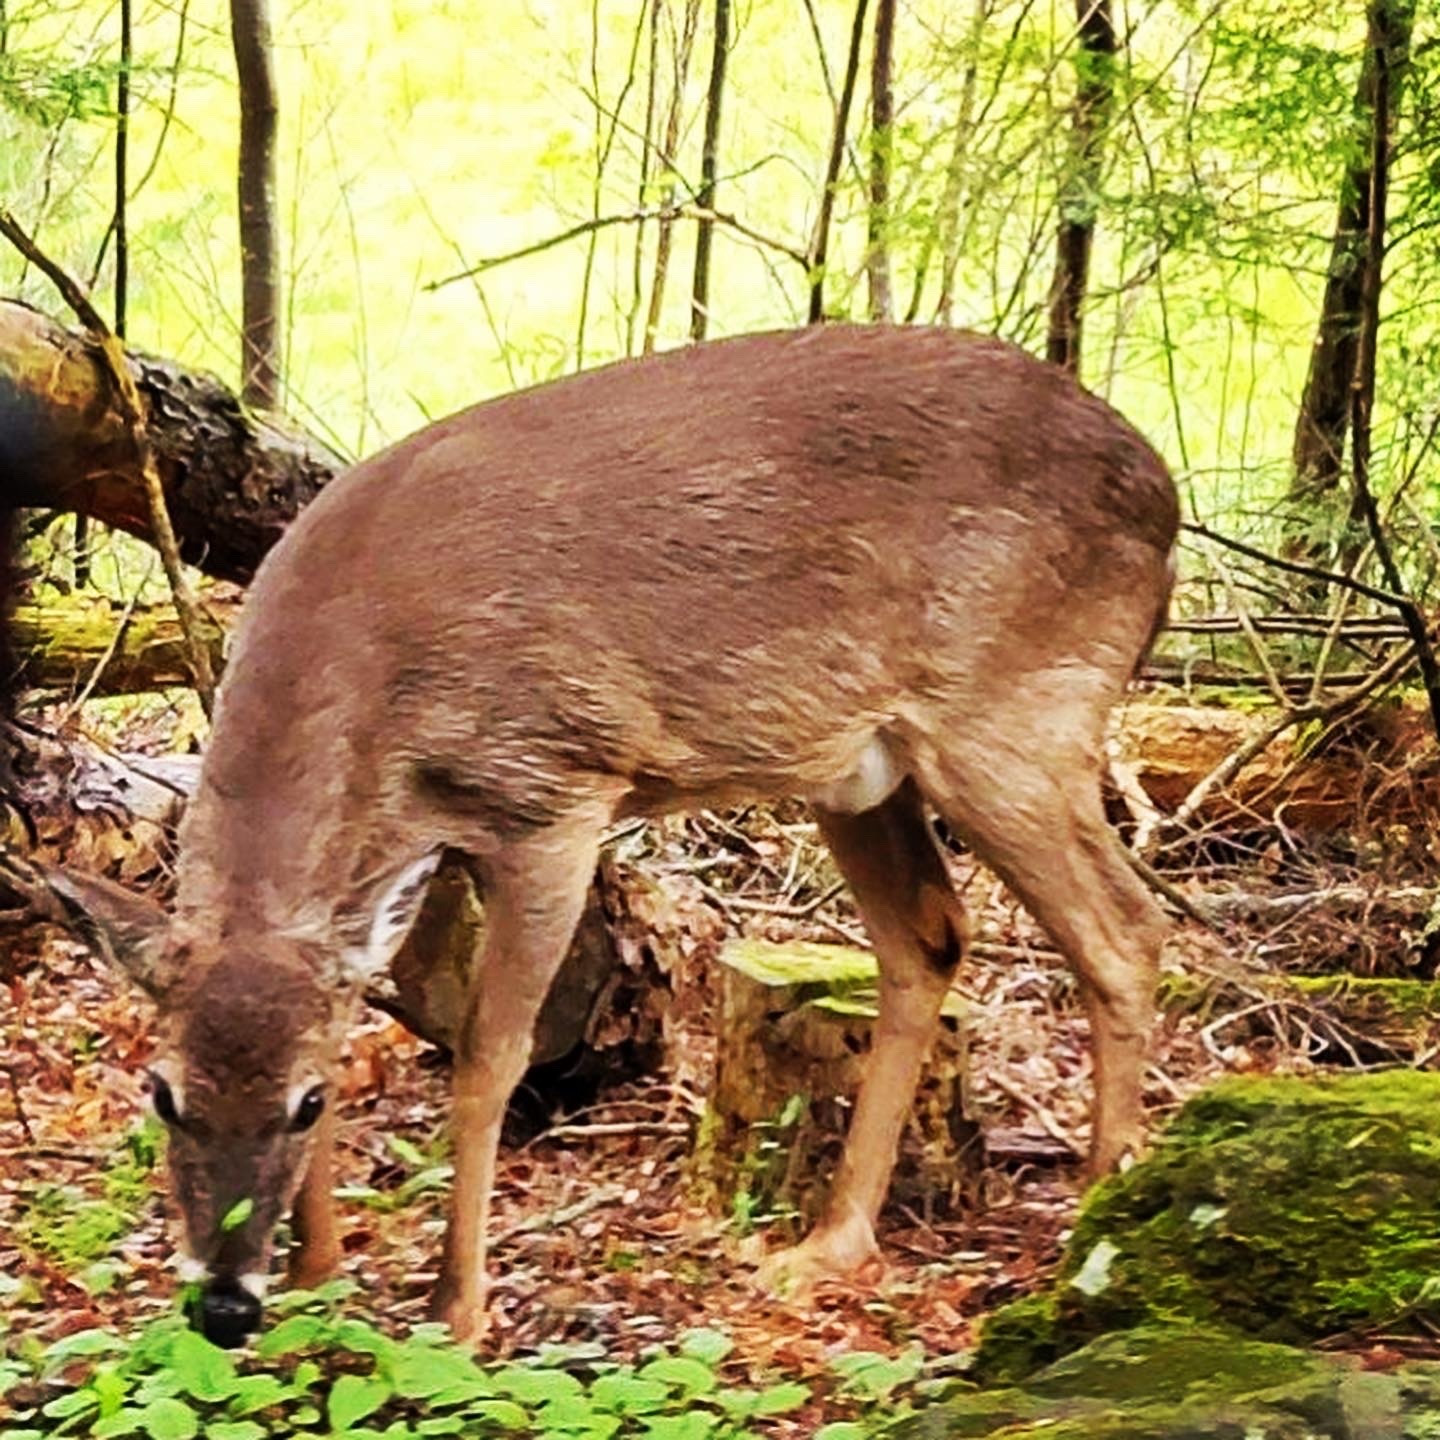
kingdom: Animalia
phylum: Chordata
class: Mammalia
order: Artiodactyla
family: Cervidae
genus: Odocoileus
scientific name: Odocoileus virginianus
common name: White-tailed deer
